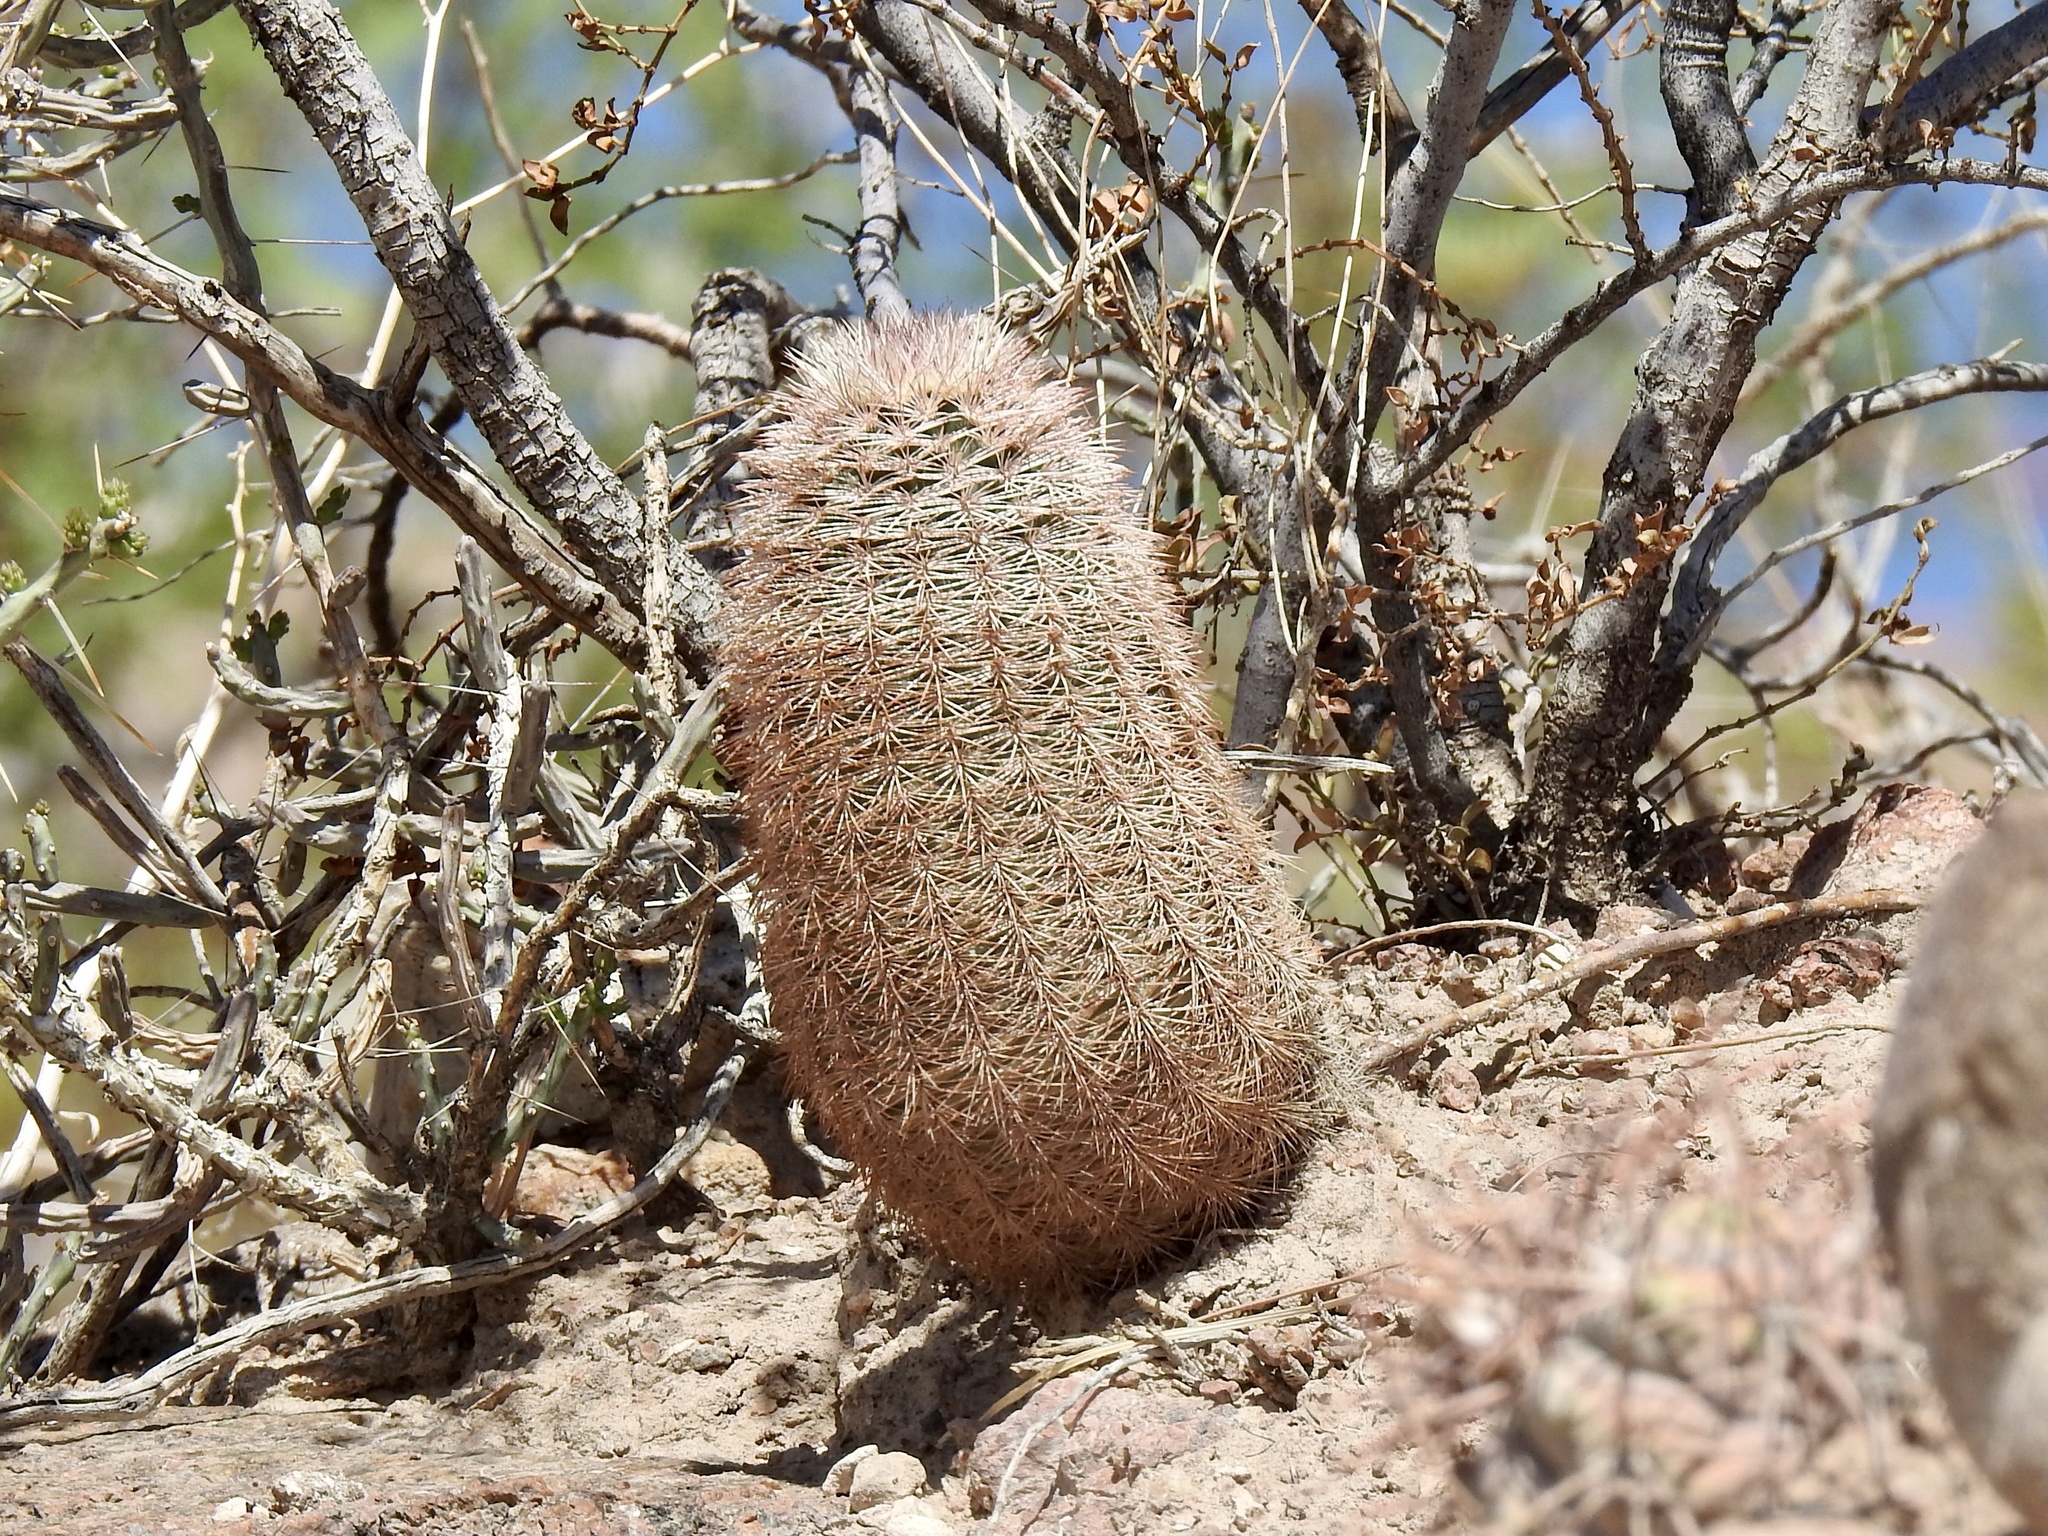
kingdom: Plantae
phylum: Tracheophyta
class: Magnoliopsida
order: Caryophyllales
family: Cactaceae
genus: Echinocereus
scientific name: Echinocereus dasyacanthus
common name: Spiny hedgehog cactus
